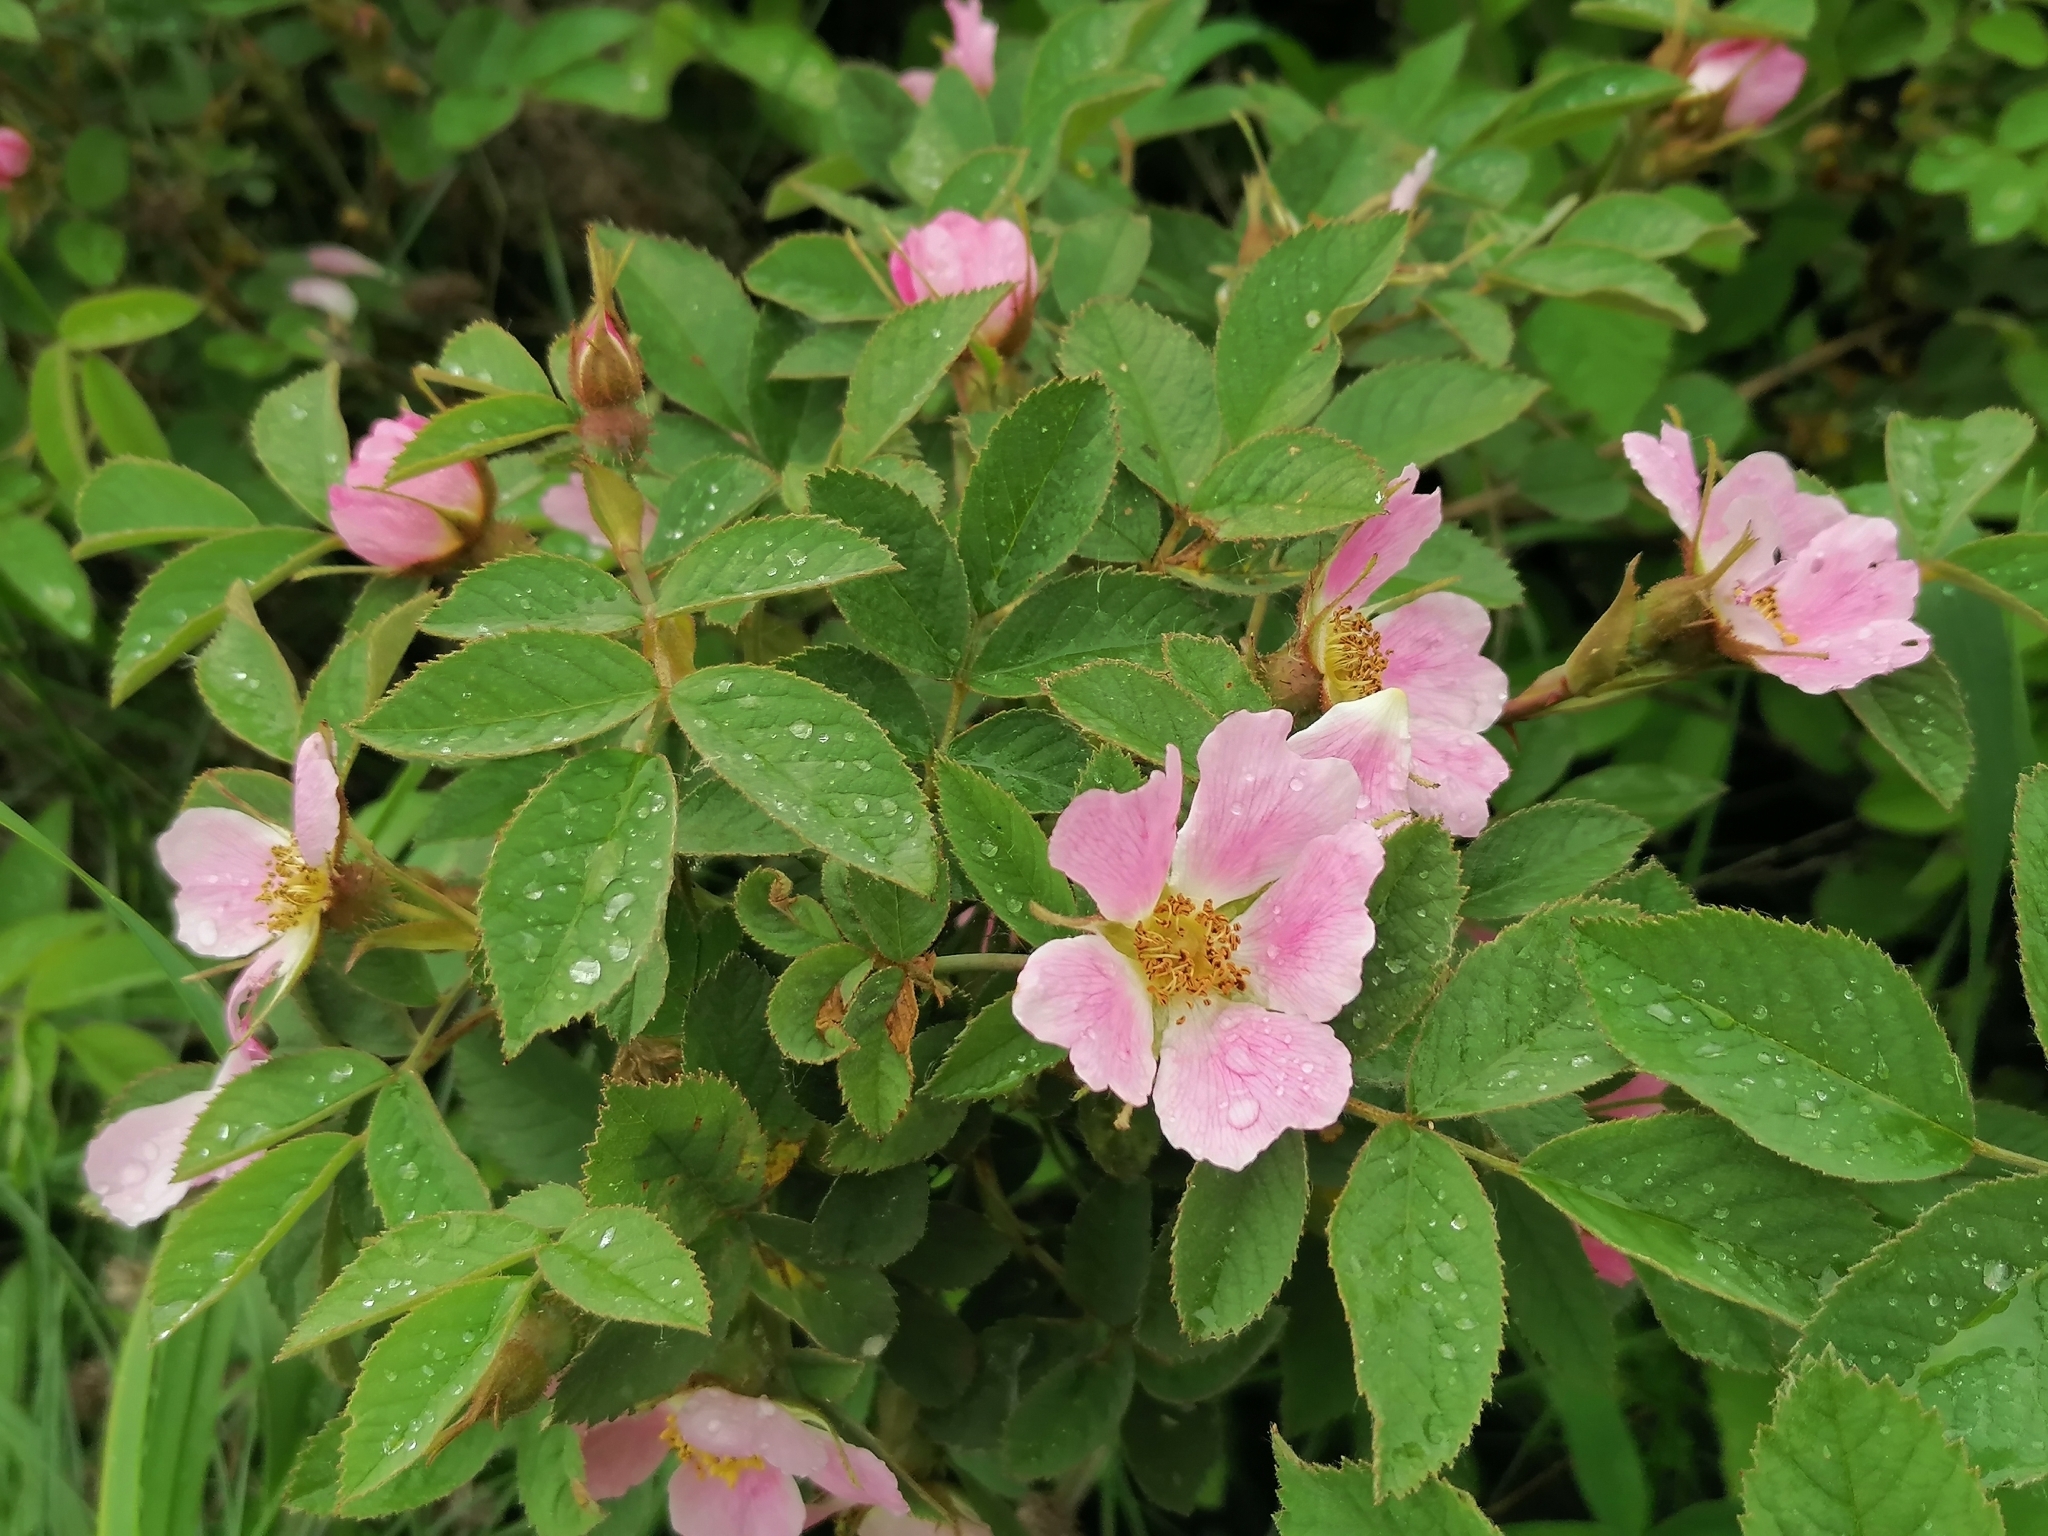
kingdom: Plantae
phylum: Tracheophyta
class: Magnoliopsida
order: Rosales
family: Rosaceae
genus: Rosa
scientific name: Rosa majalis
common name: Cinnamon rose
